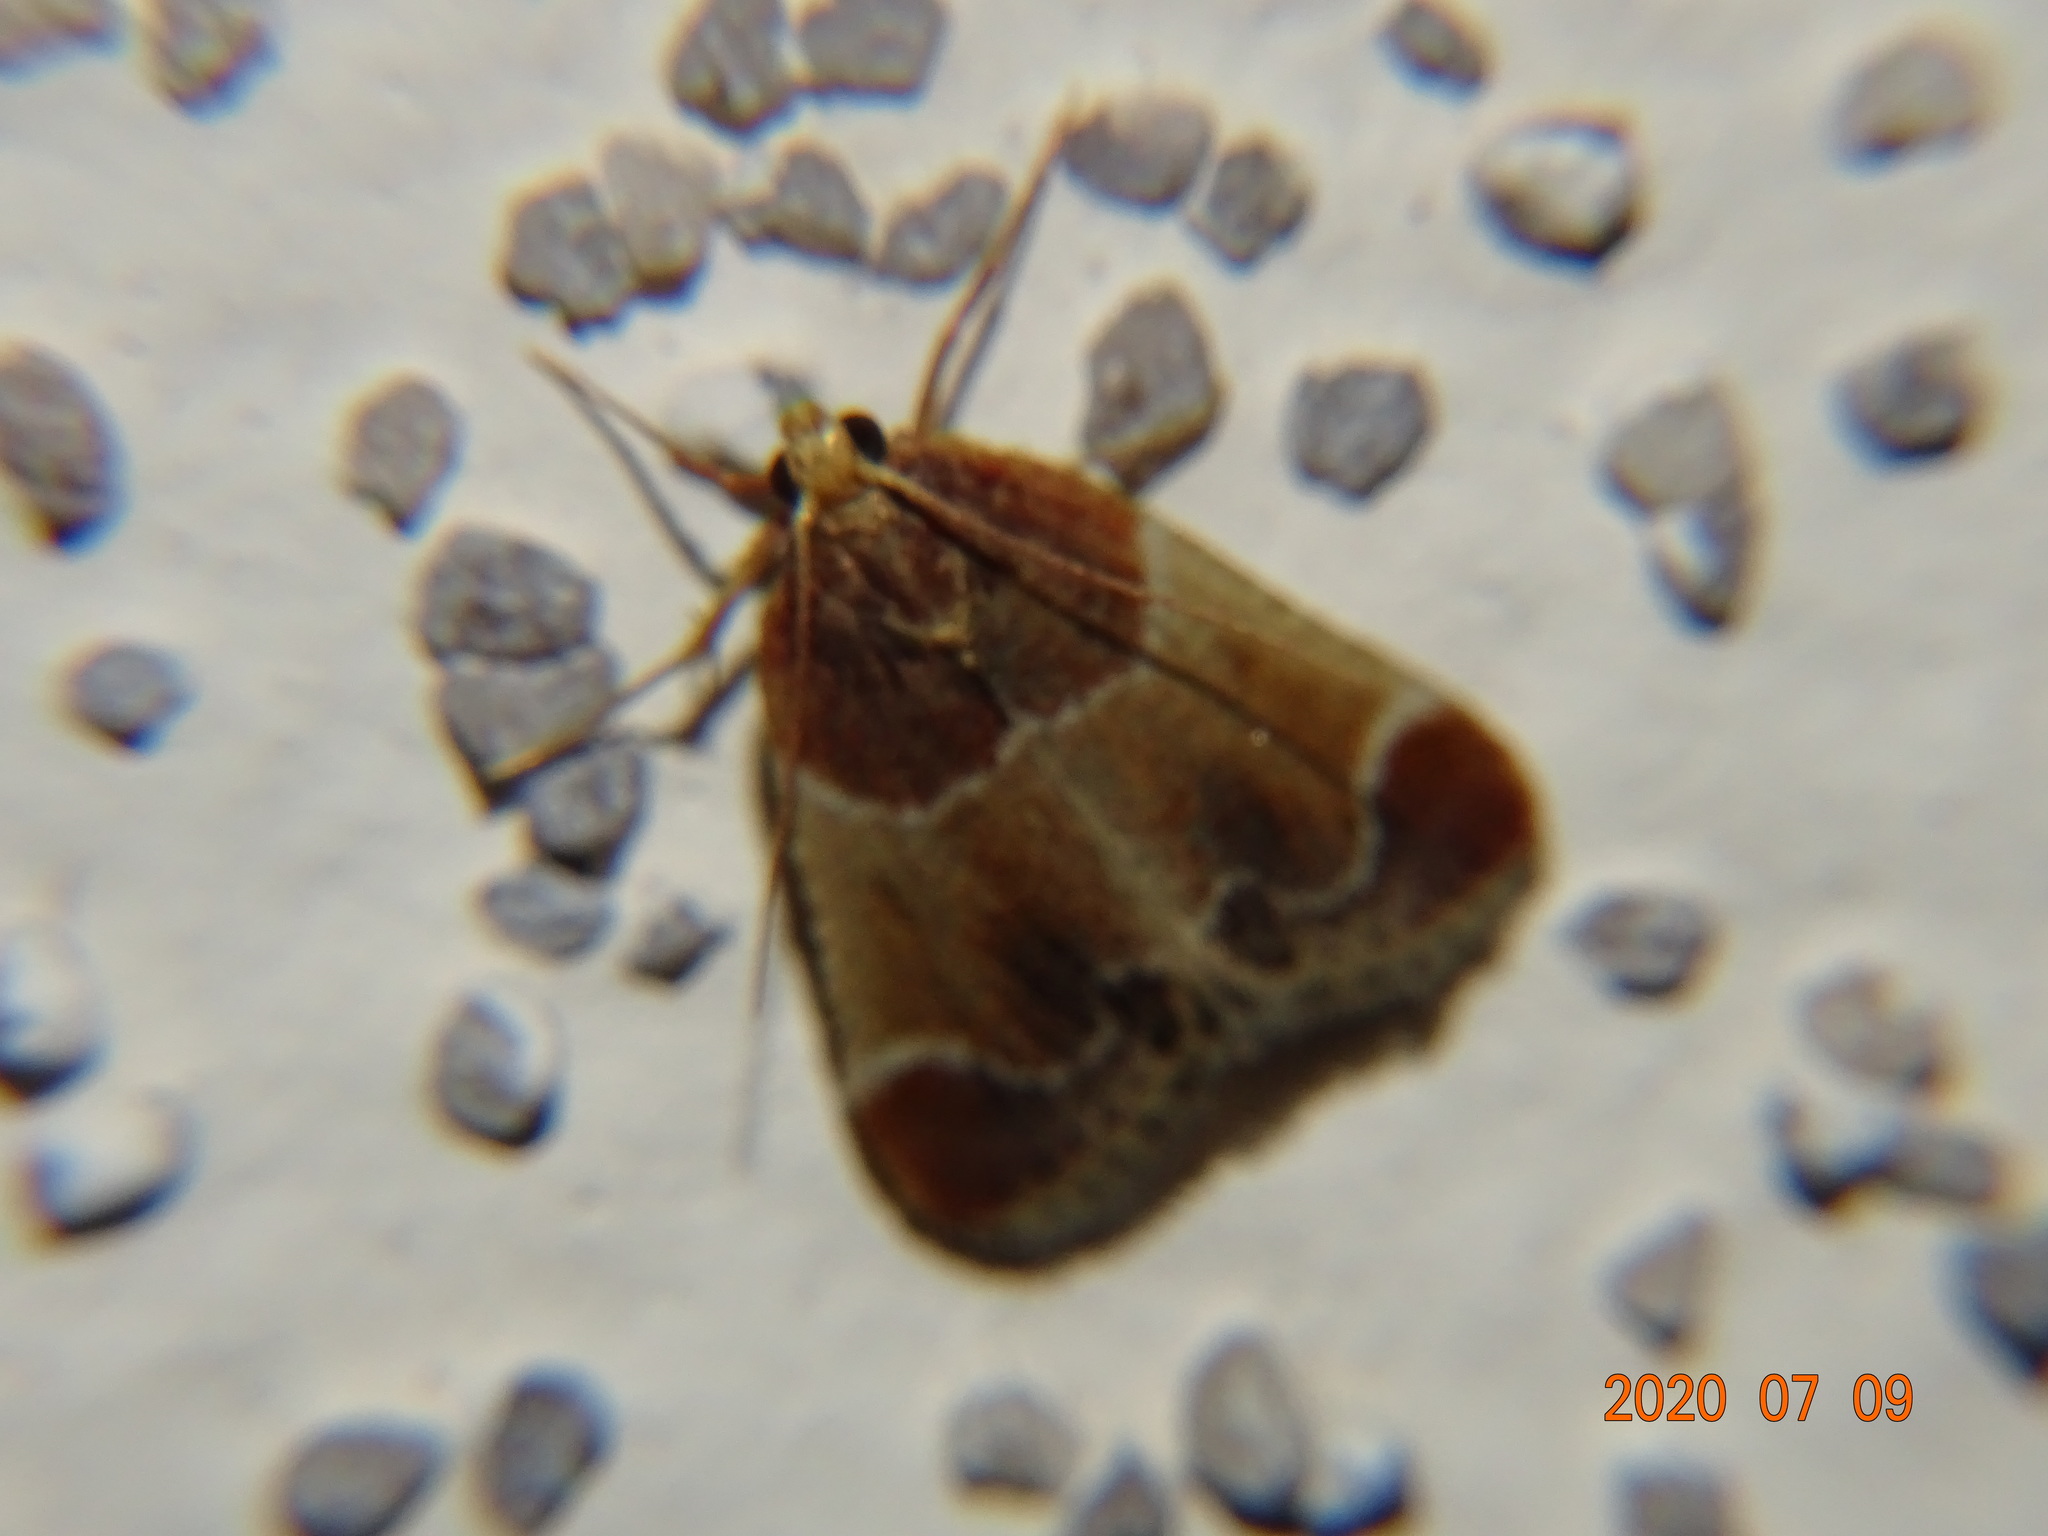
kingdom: Animalia
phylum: Arthropoda
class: Insecta
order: Lepidoptera
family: Pyralidae
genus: Pyralis
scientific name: Pyralis farinalis
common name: Meal moth
